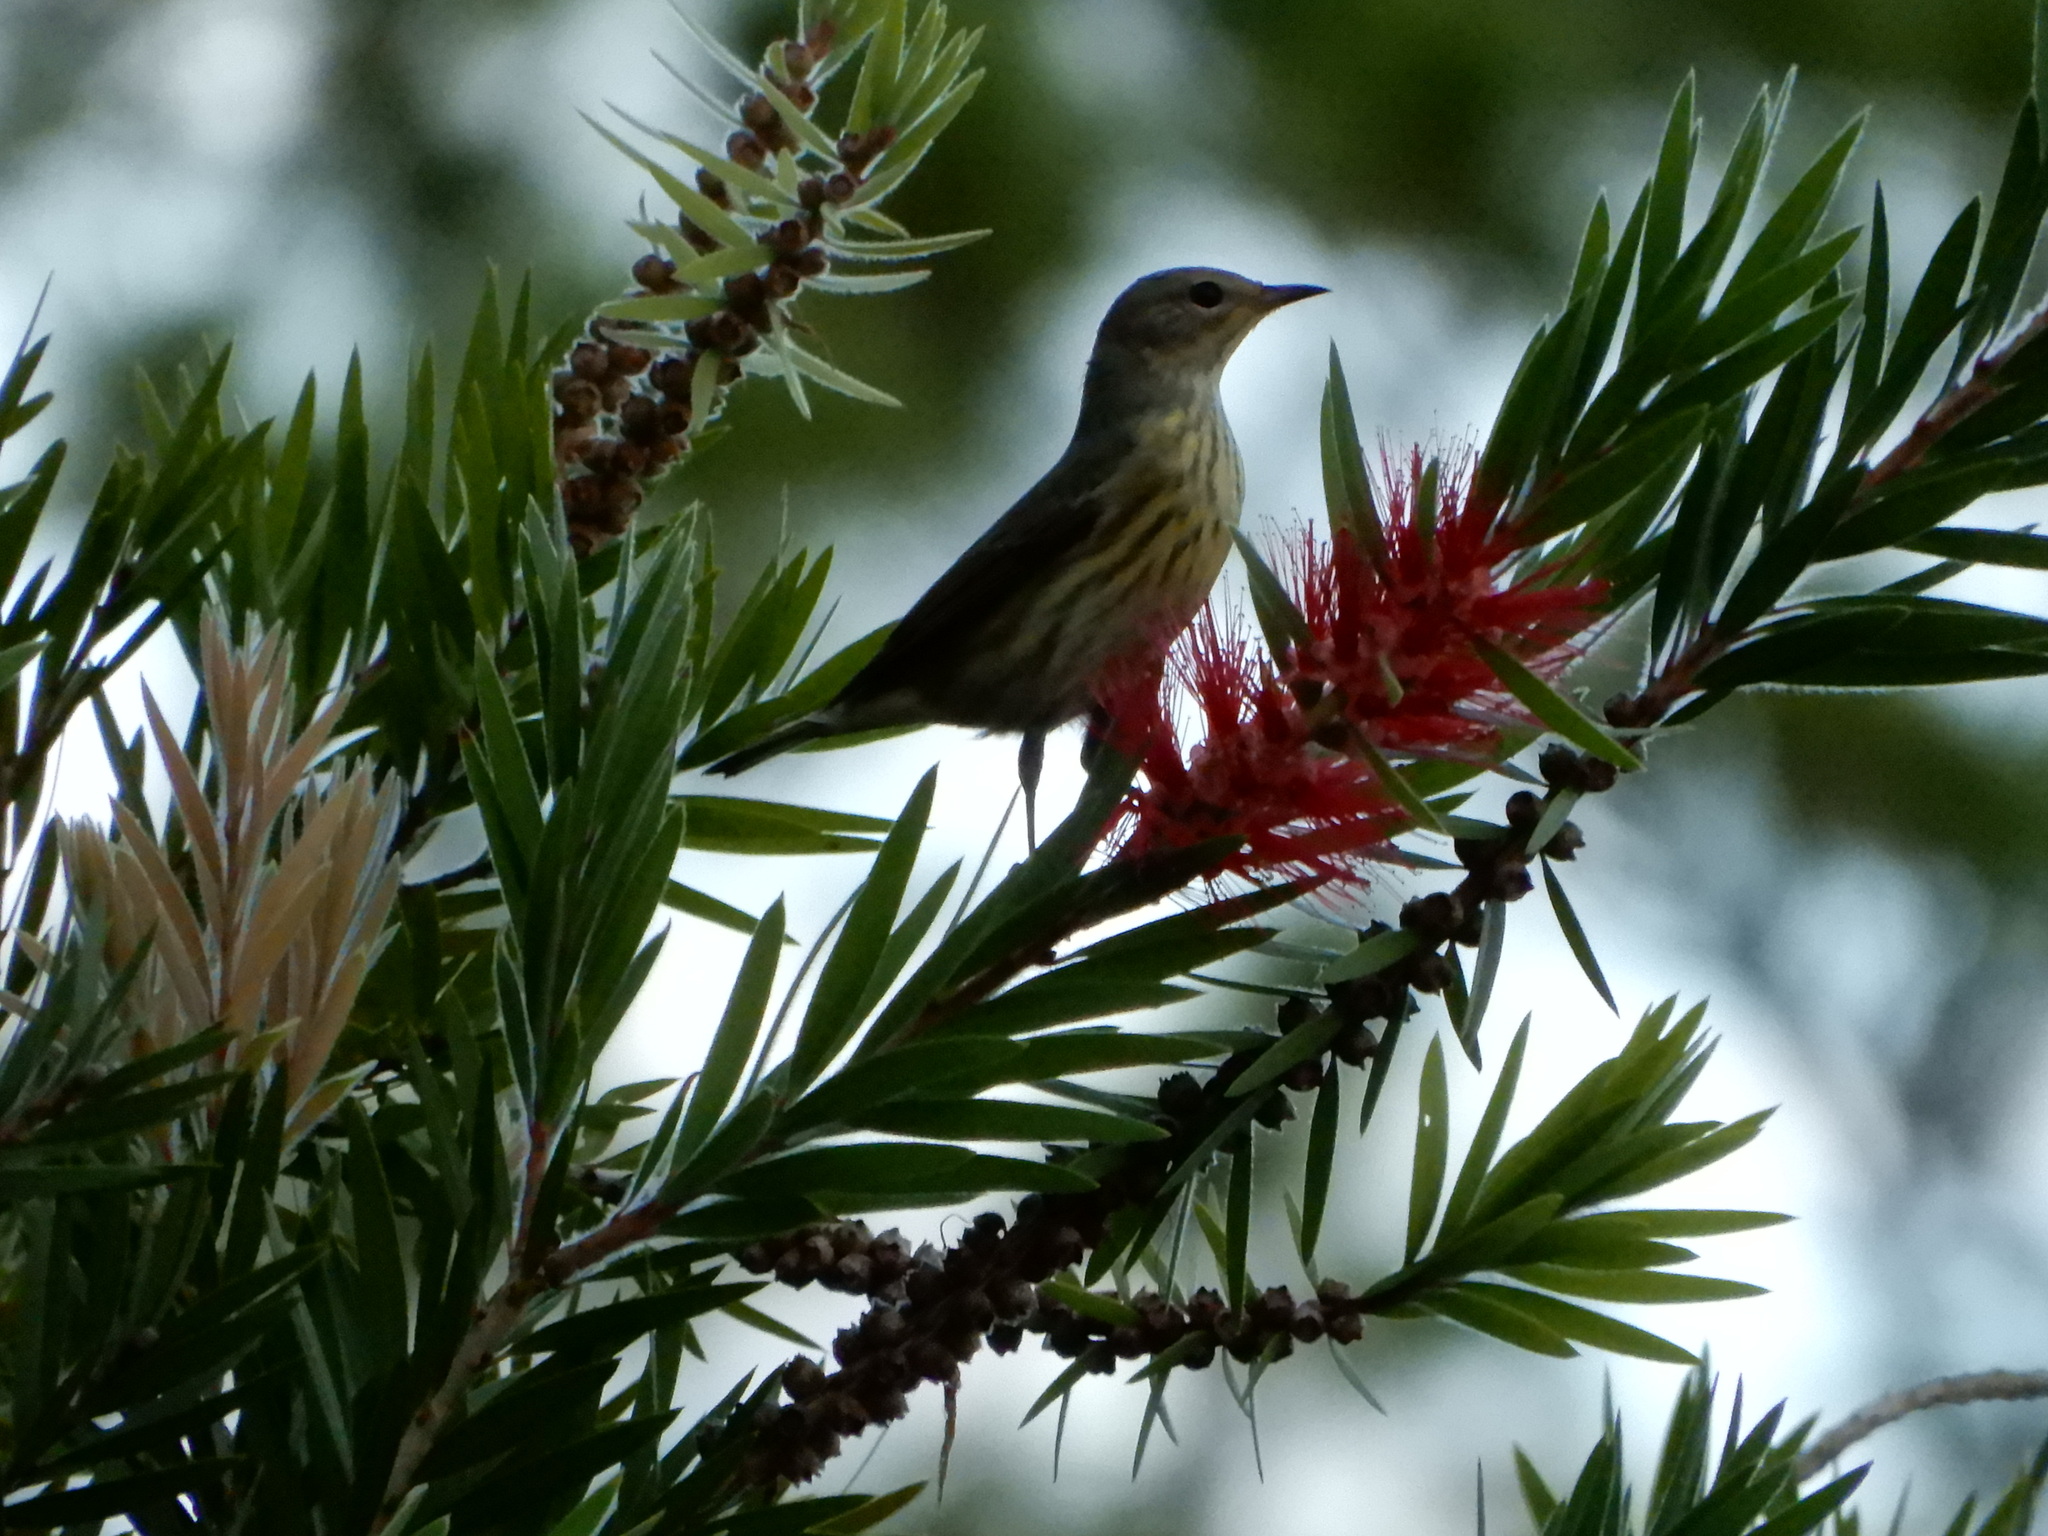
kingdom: Animalia
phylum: Chordata
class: Aves
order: Passeriformes
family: Parulidae
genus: Setophaga
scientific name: Setophaga tigrina
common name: Cape may warbler
